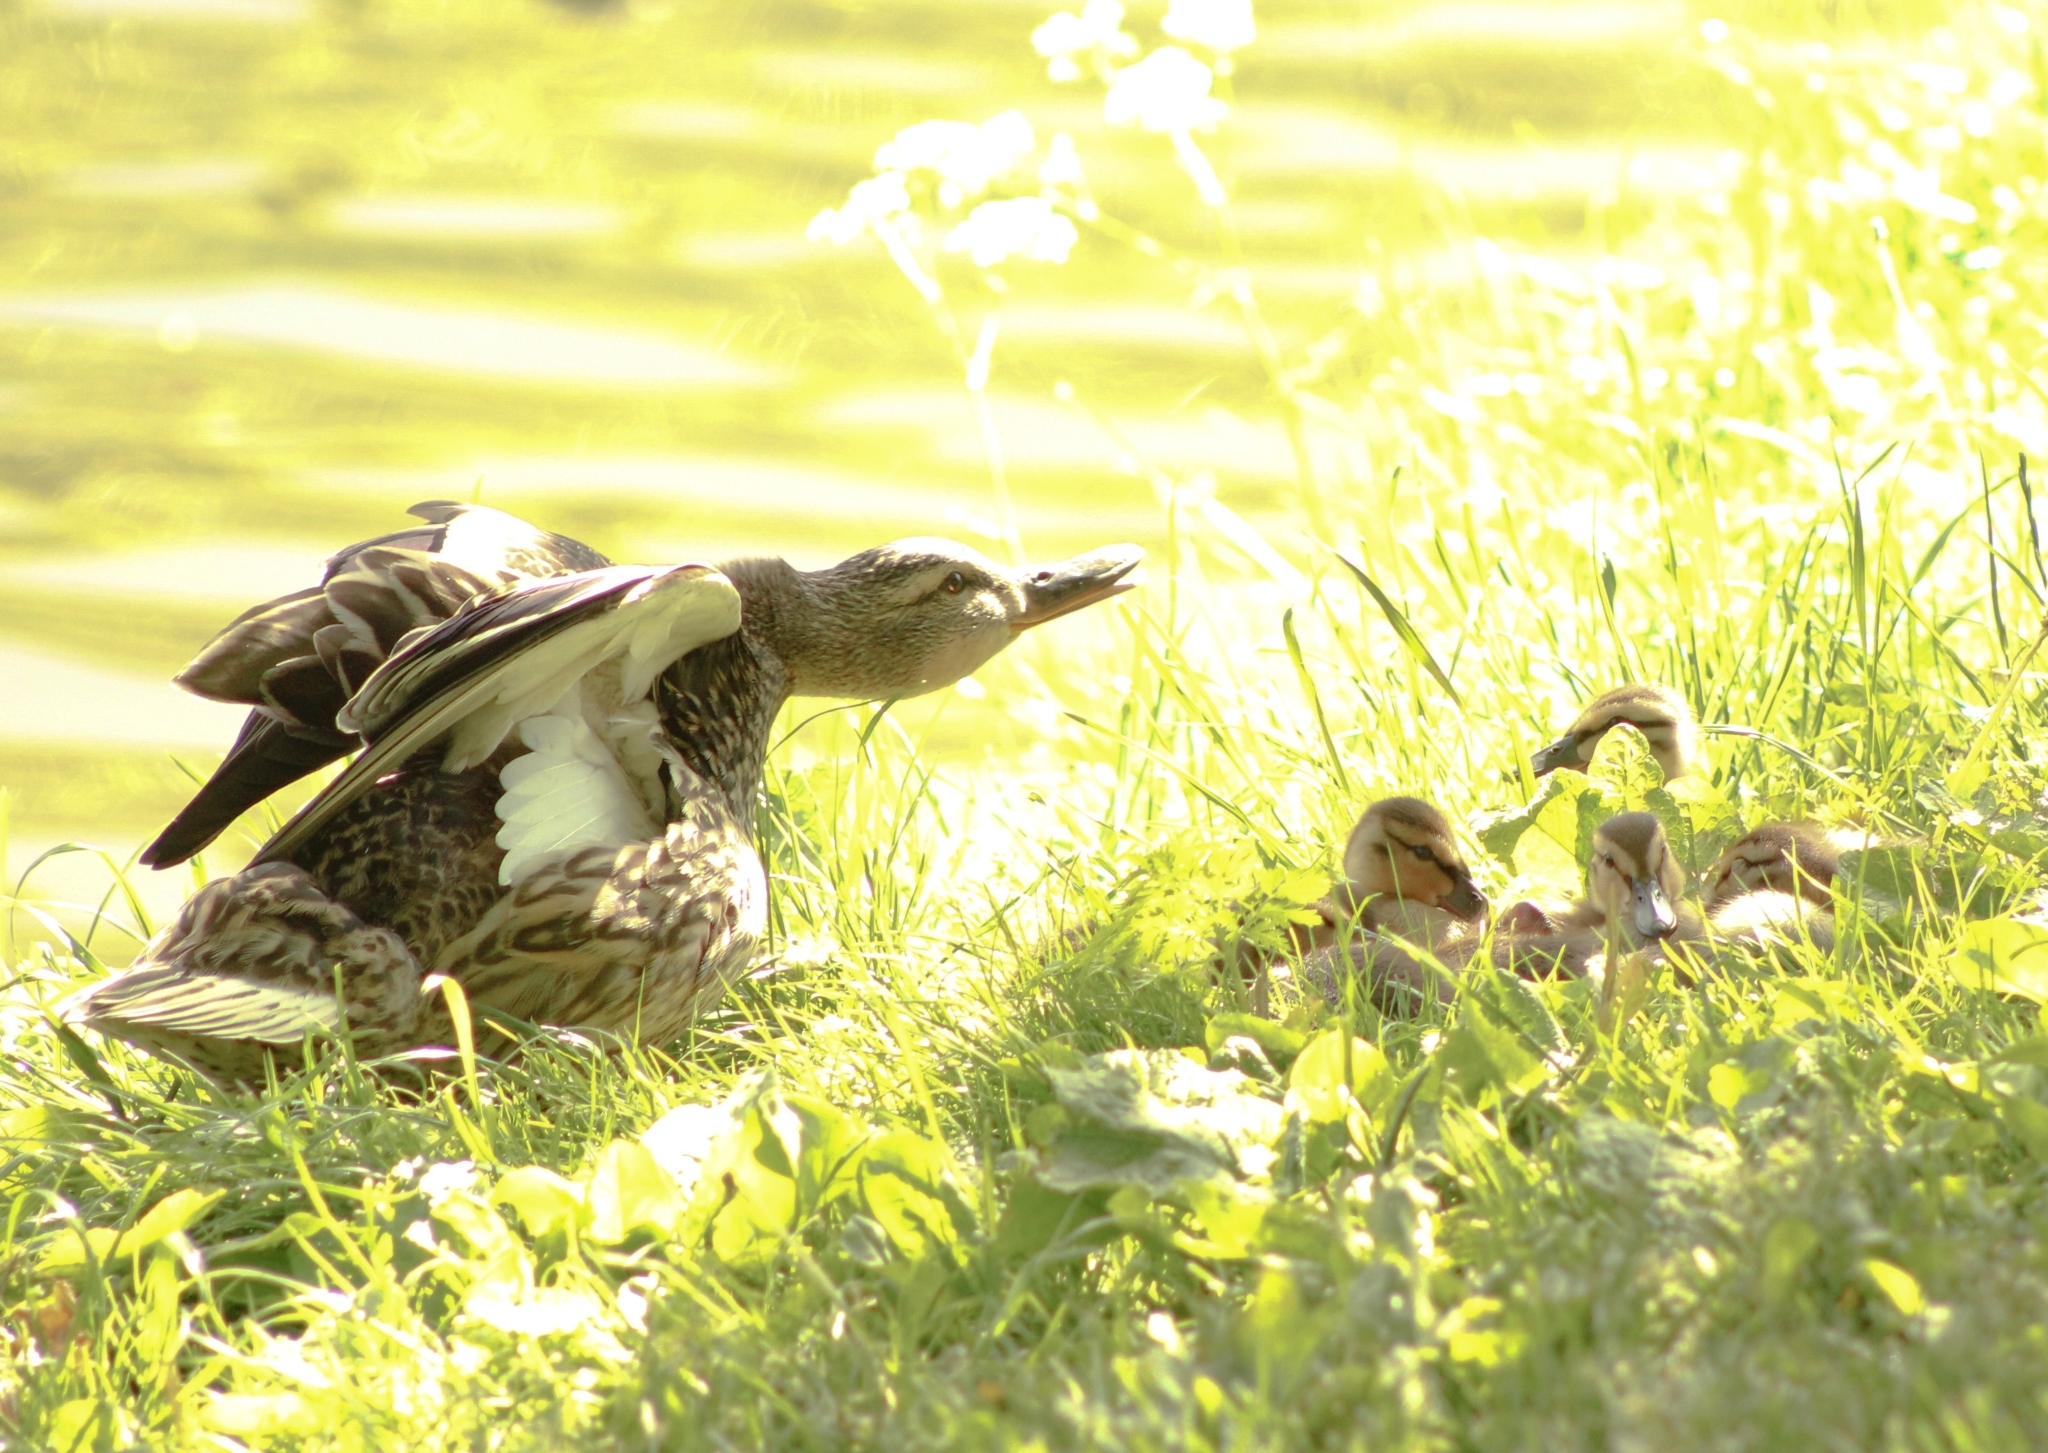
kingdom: Animalia
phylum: Chordata
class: Aves
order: Anseriformes
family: Anatidae
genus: Anas
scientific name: Anas platyrhynchos
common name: Mallard
